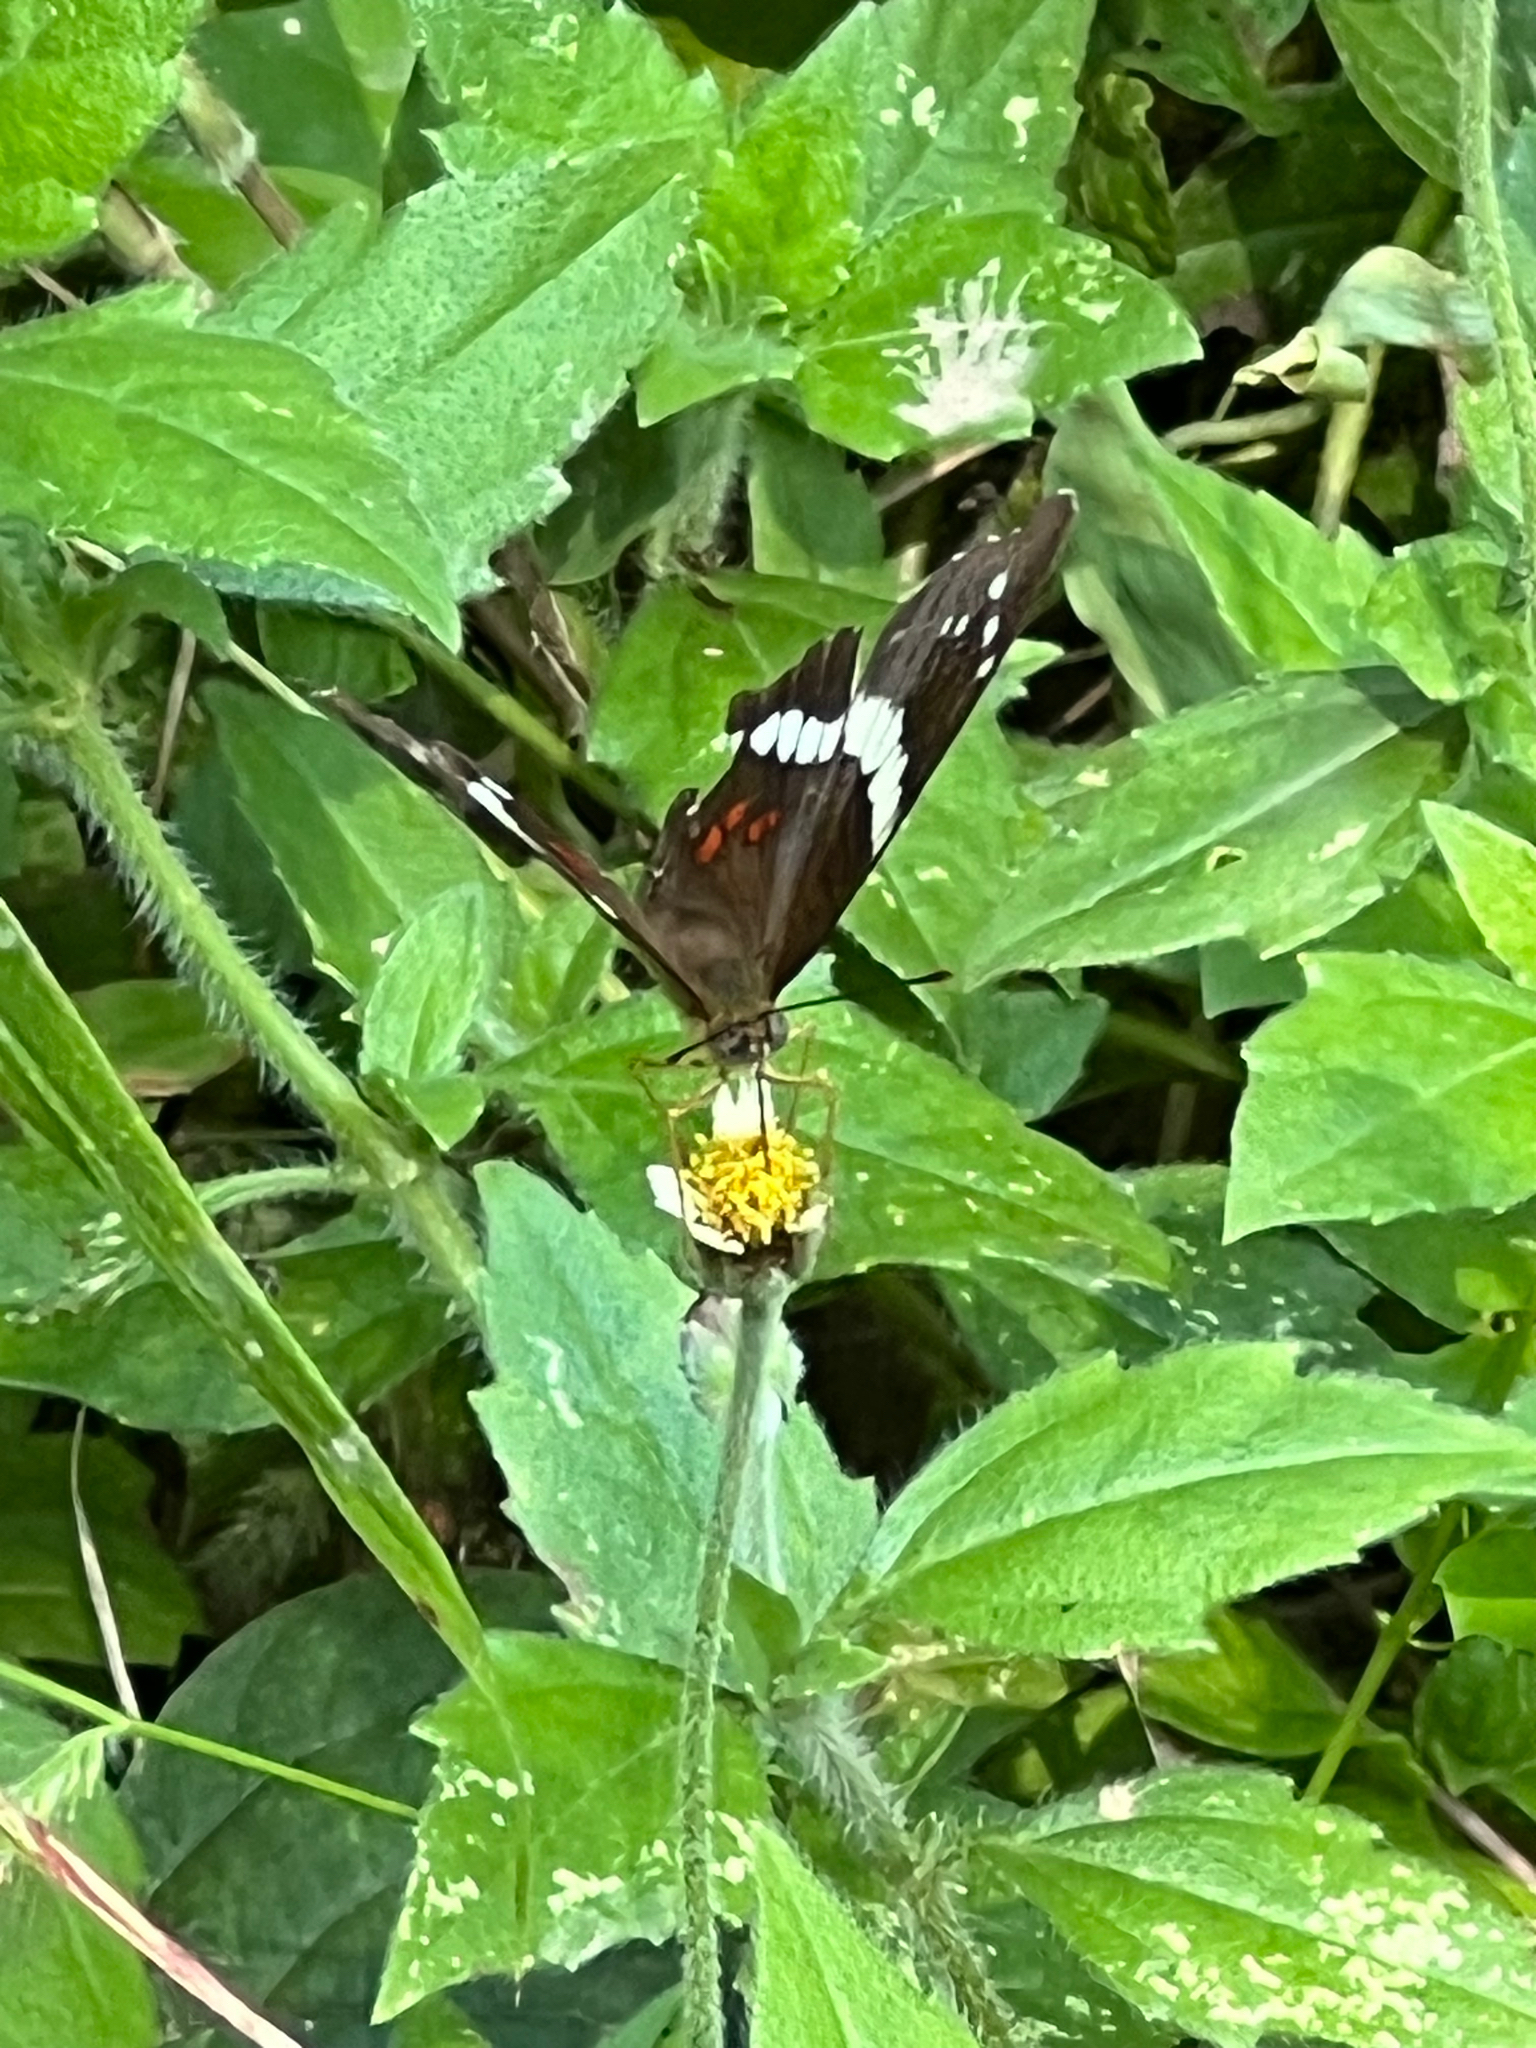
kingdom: Animalia
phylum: Arthropoda
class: Insecta
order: Lepidoptera
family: Nymphalidae
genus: Anartia
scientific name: Anartia fatima
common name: Banded peacock
